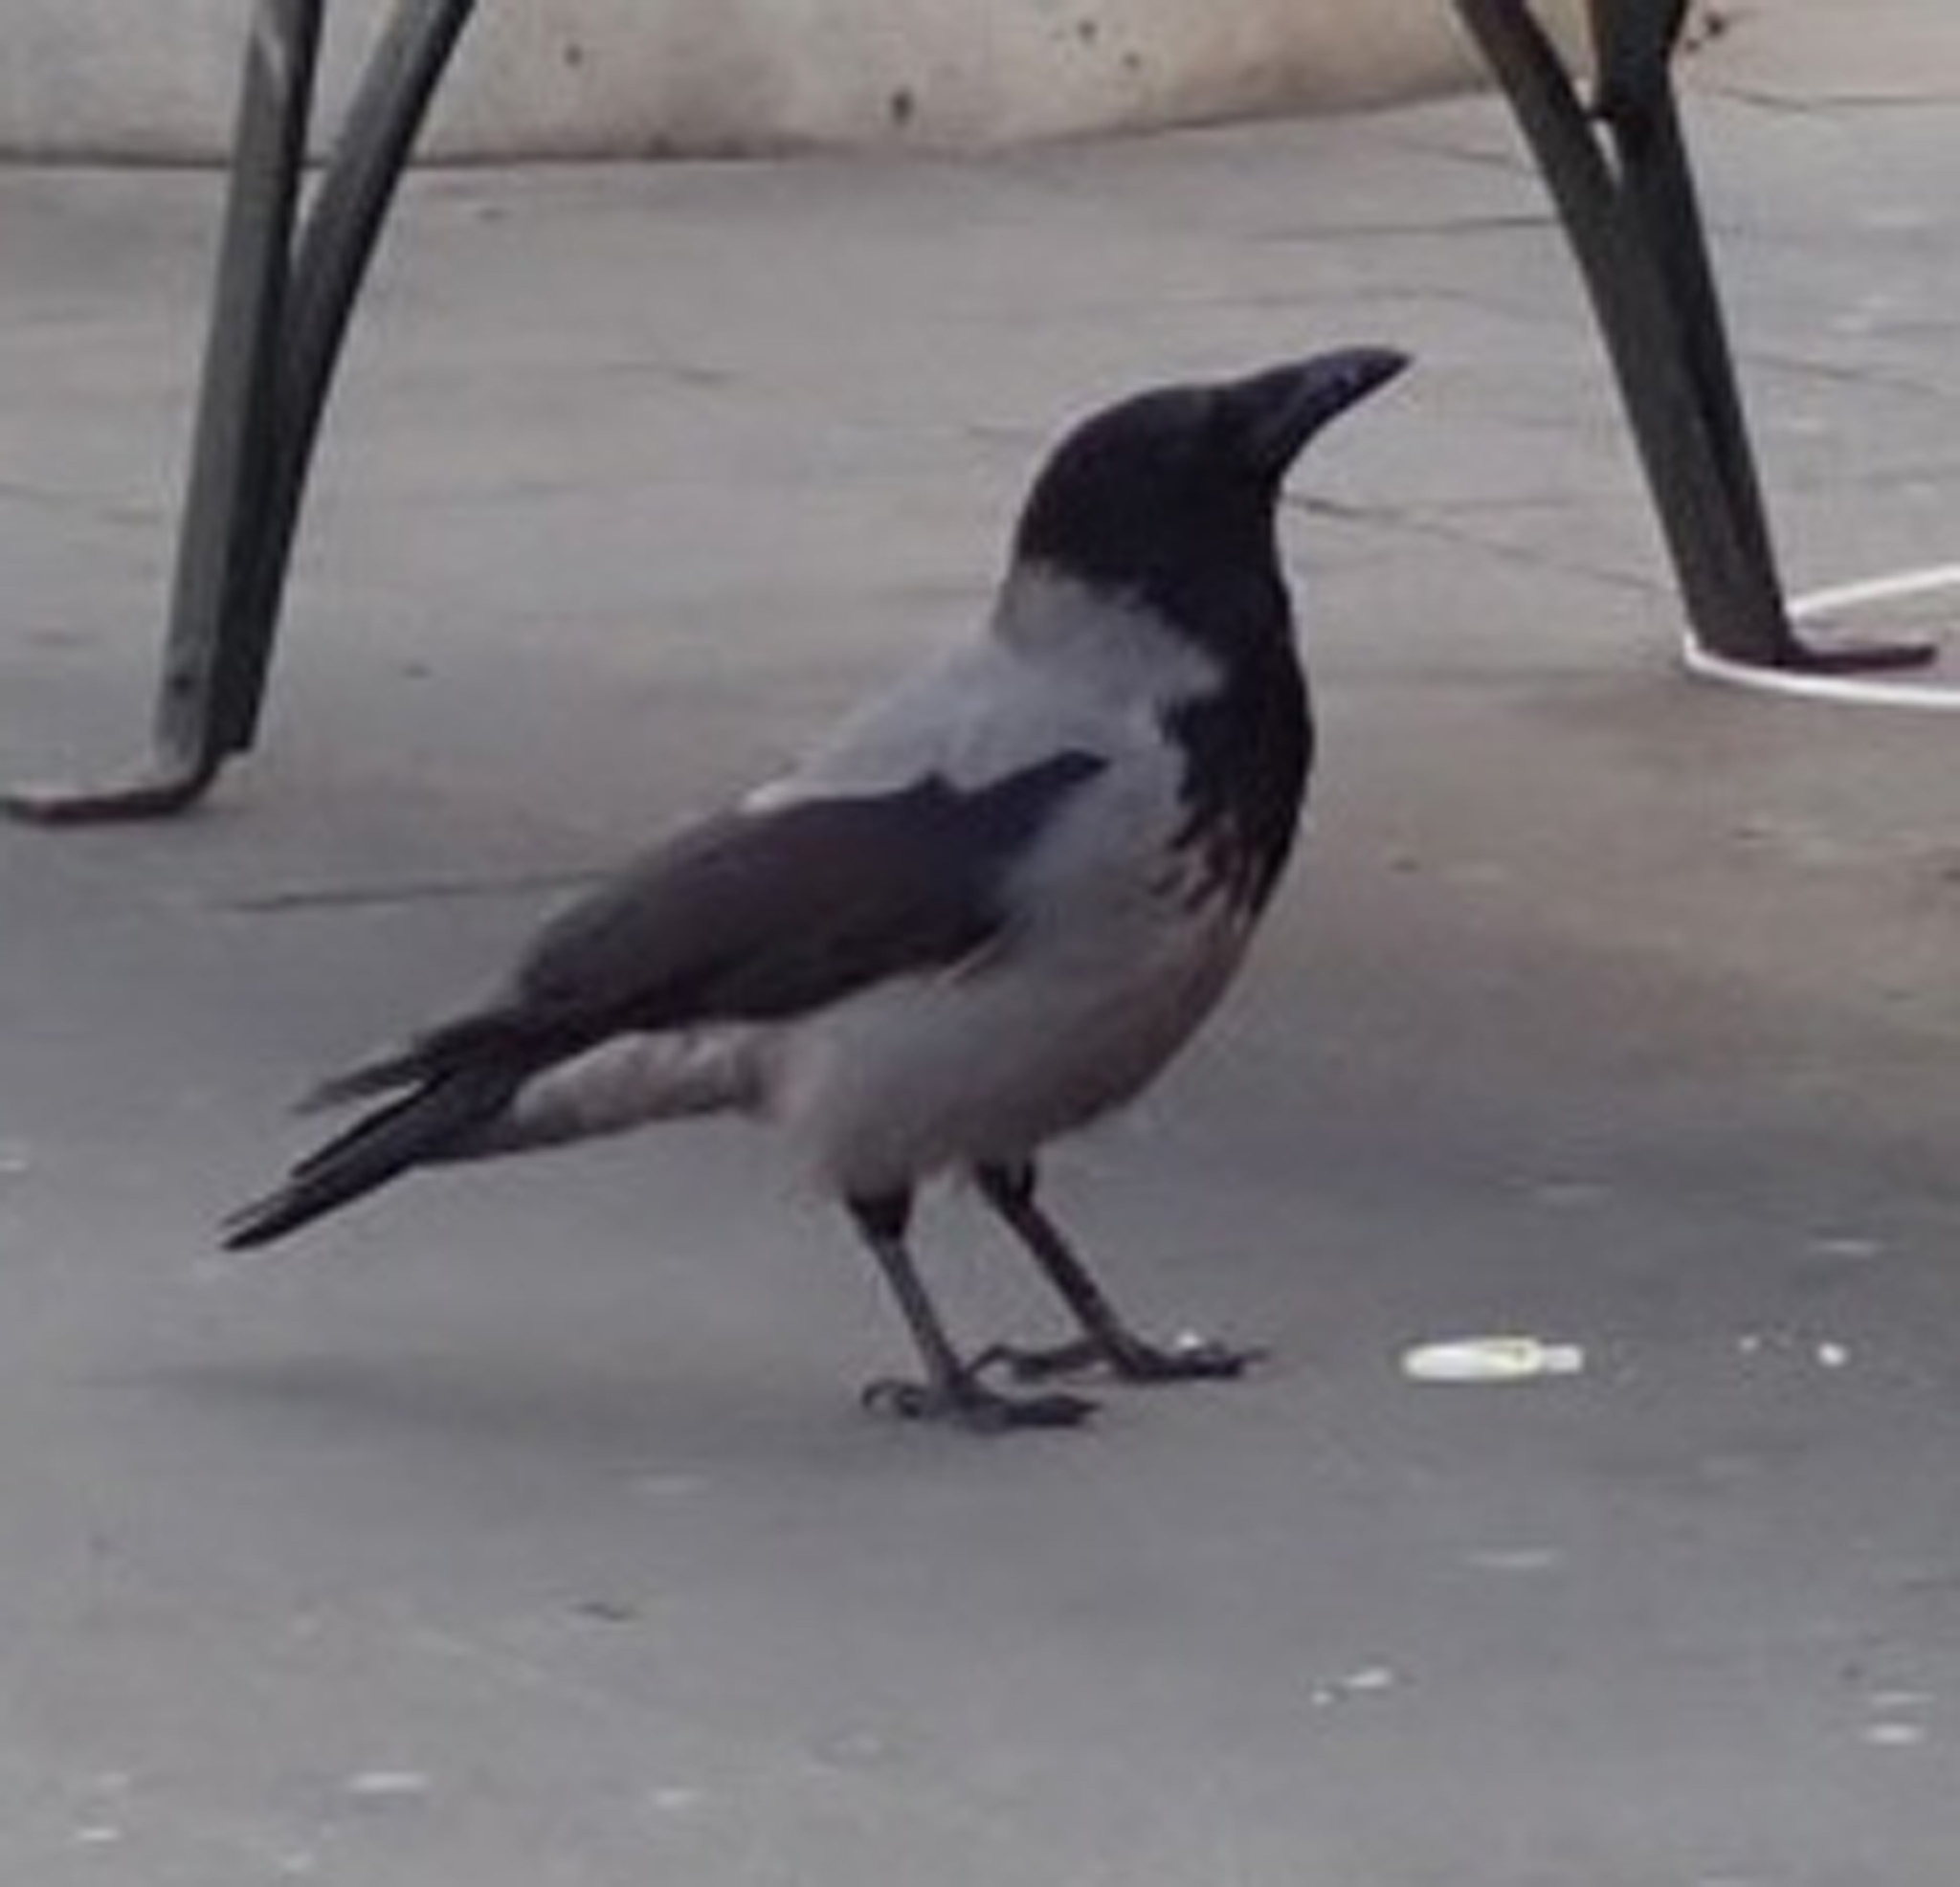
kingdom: Animalia
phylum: Chordata
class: Aves
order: Passeriformes
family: Corvidae
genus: Corvus
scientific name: Corvus cornix
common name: Hooded crow
